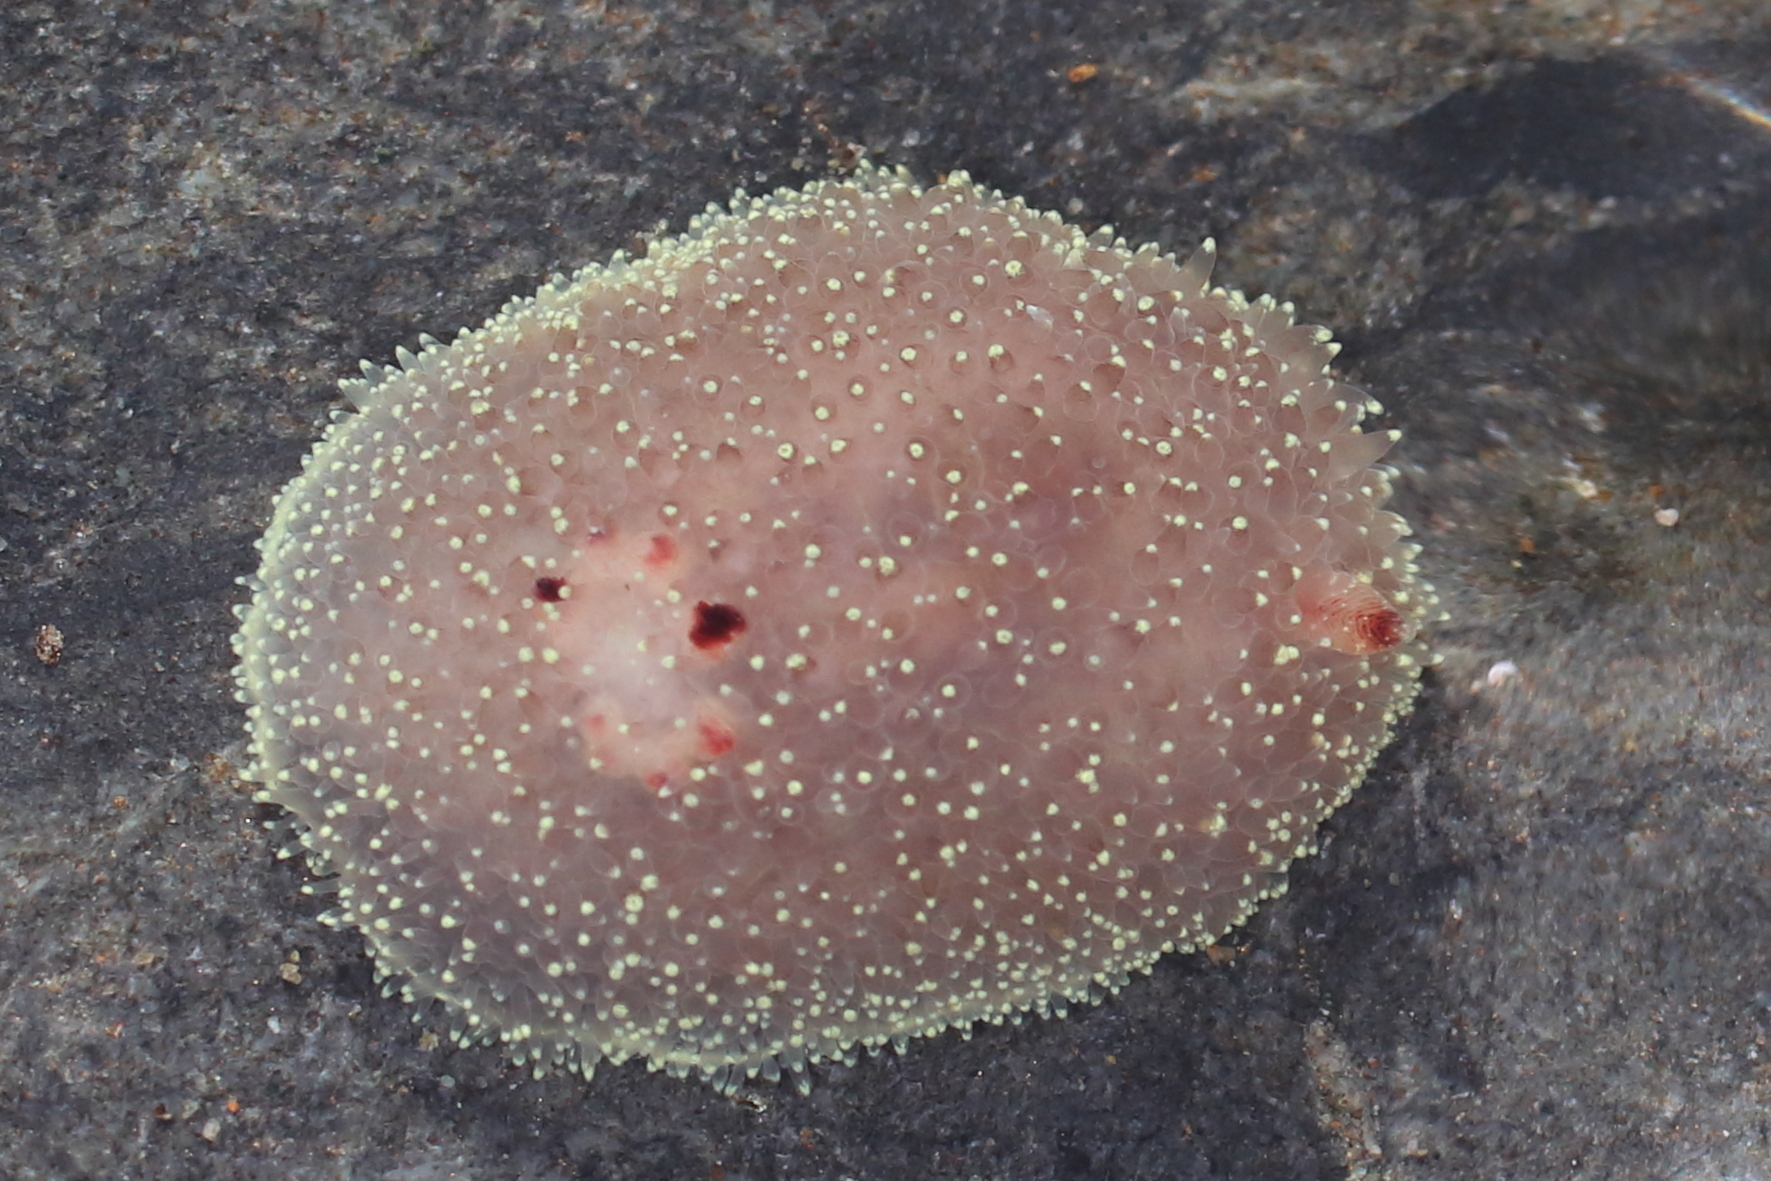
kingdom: Animalia
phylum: Mollusca
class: Gastropoda
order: Nudibranchia
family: Onchidorididae
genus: Acanthodoris
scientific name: Acanthodoris nanaimoensis
